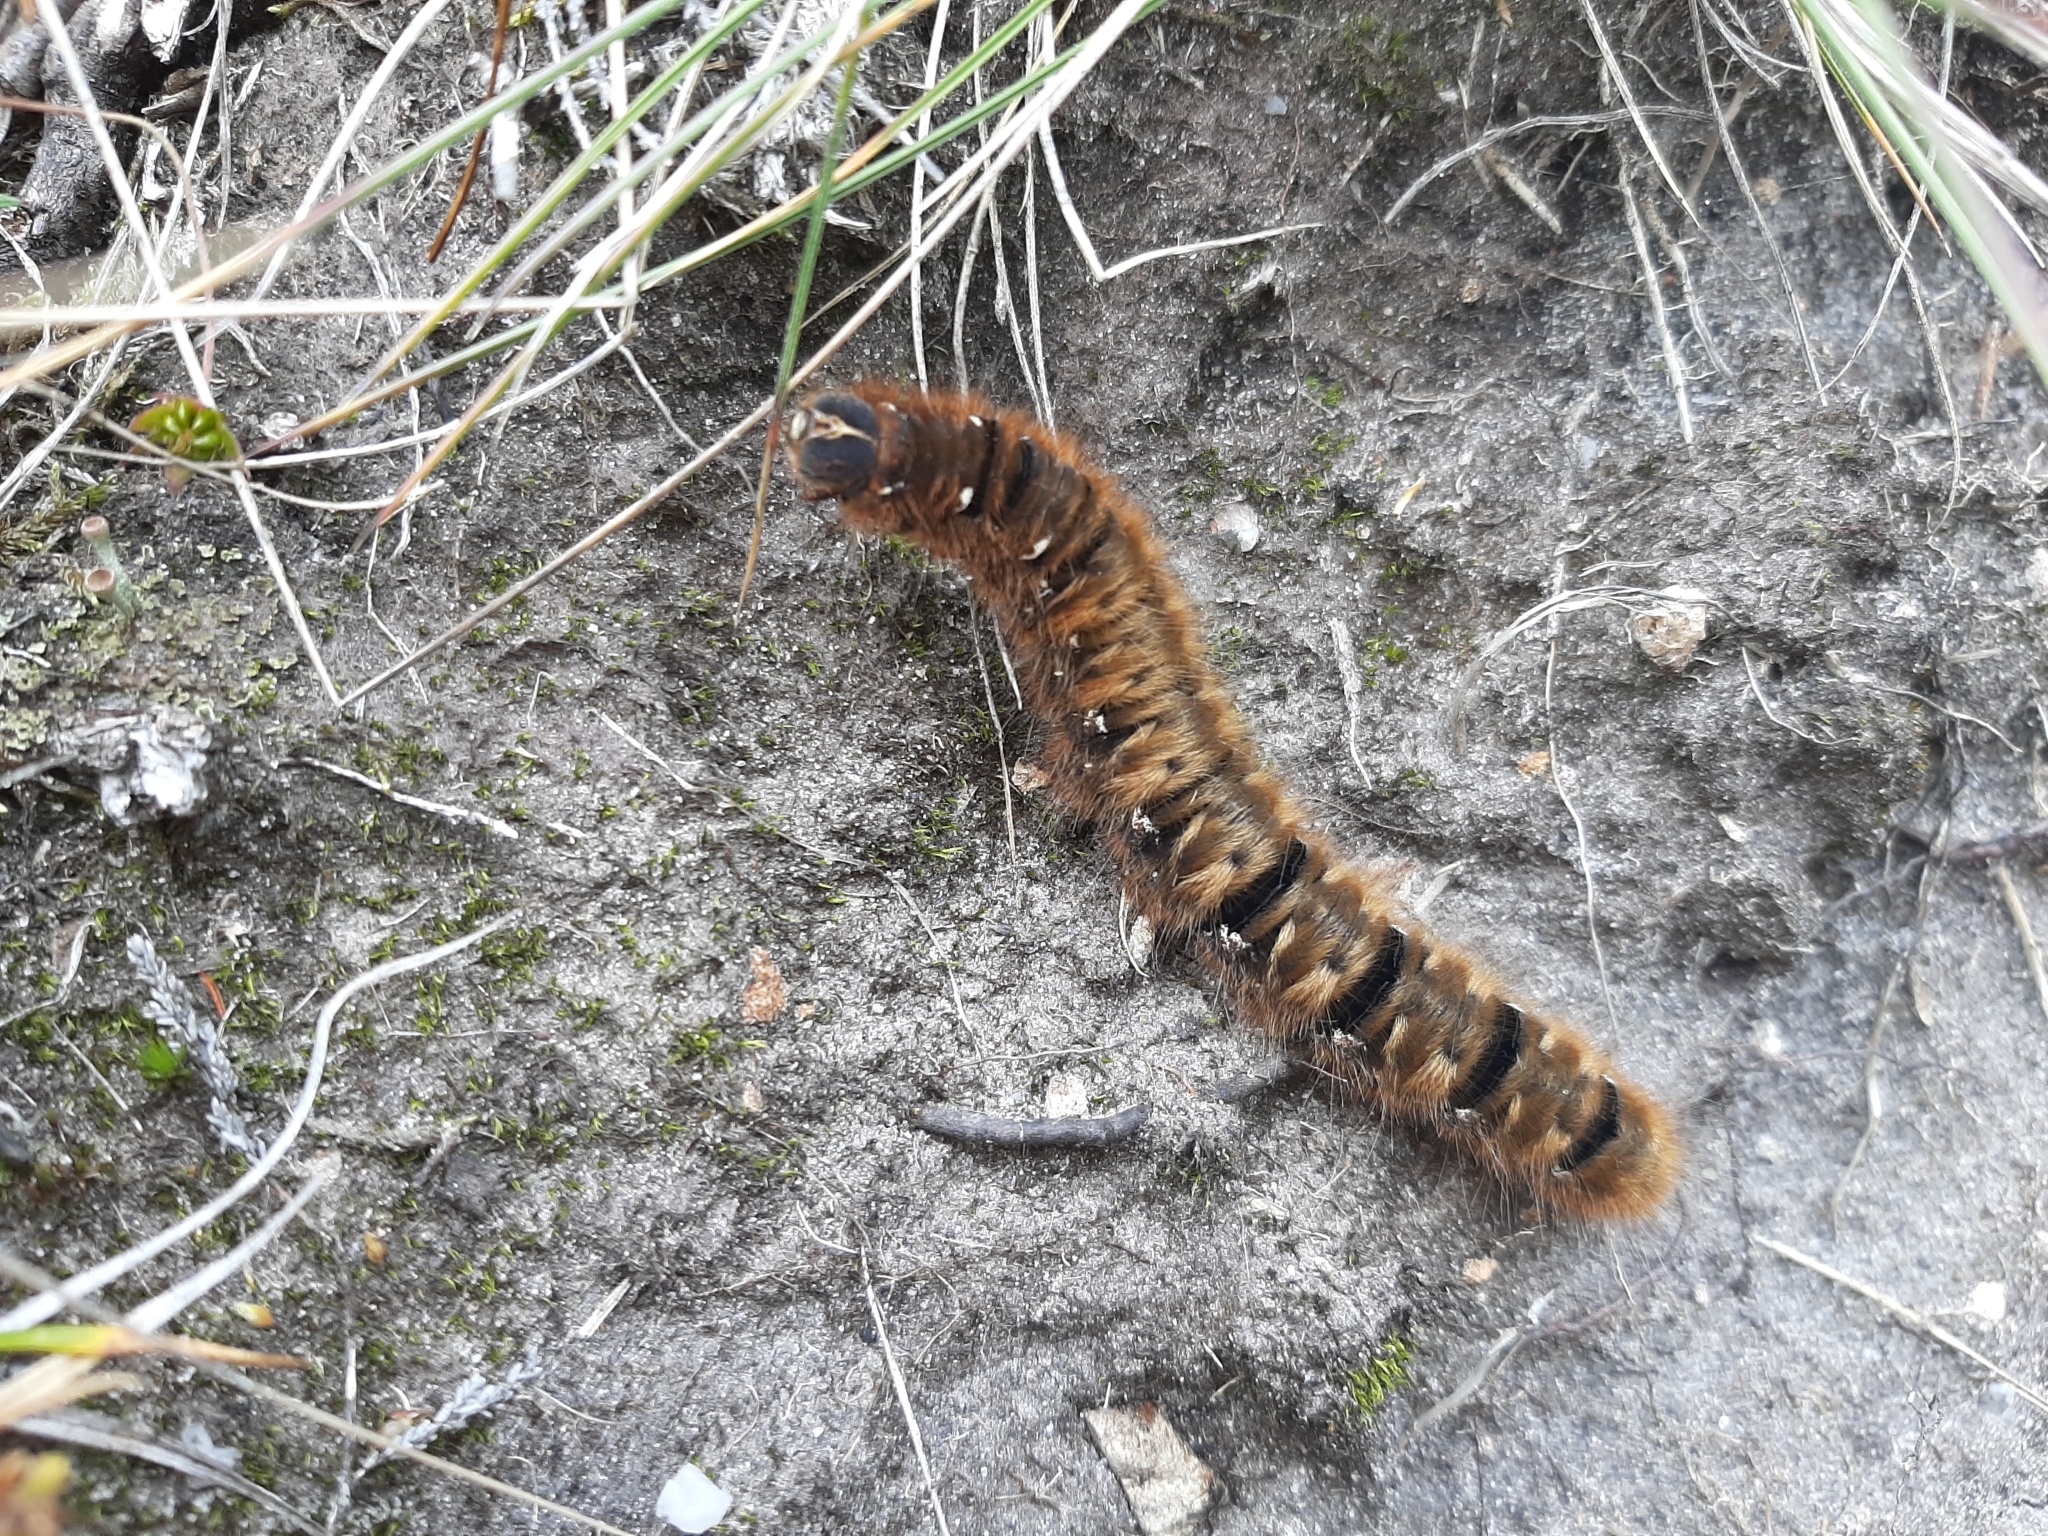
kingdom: Animalia
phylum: Arthropoda
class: Insecta
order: Lepidoptera
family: Lasiocampidae
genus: Lasiocampa
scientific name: Lasiocampa quercus
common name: Oak eggar
